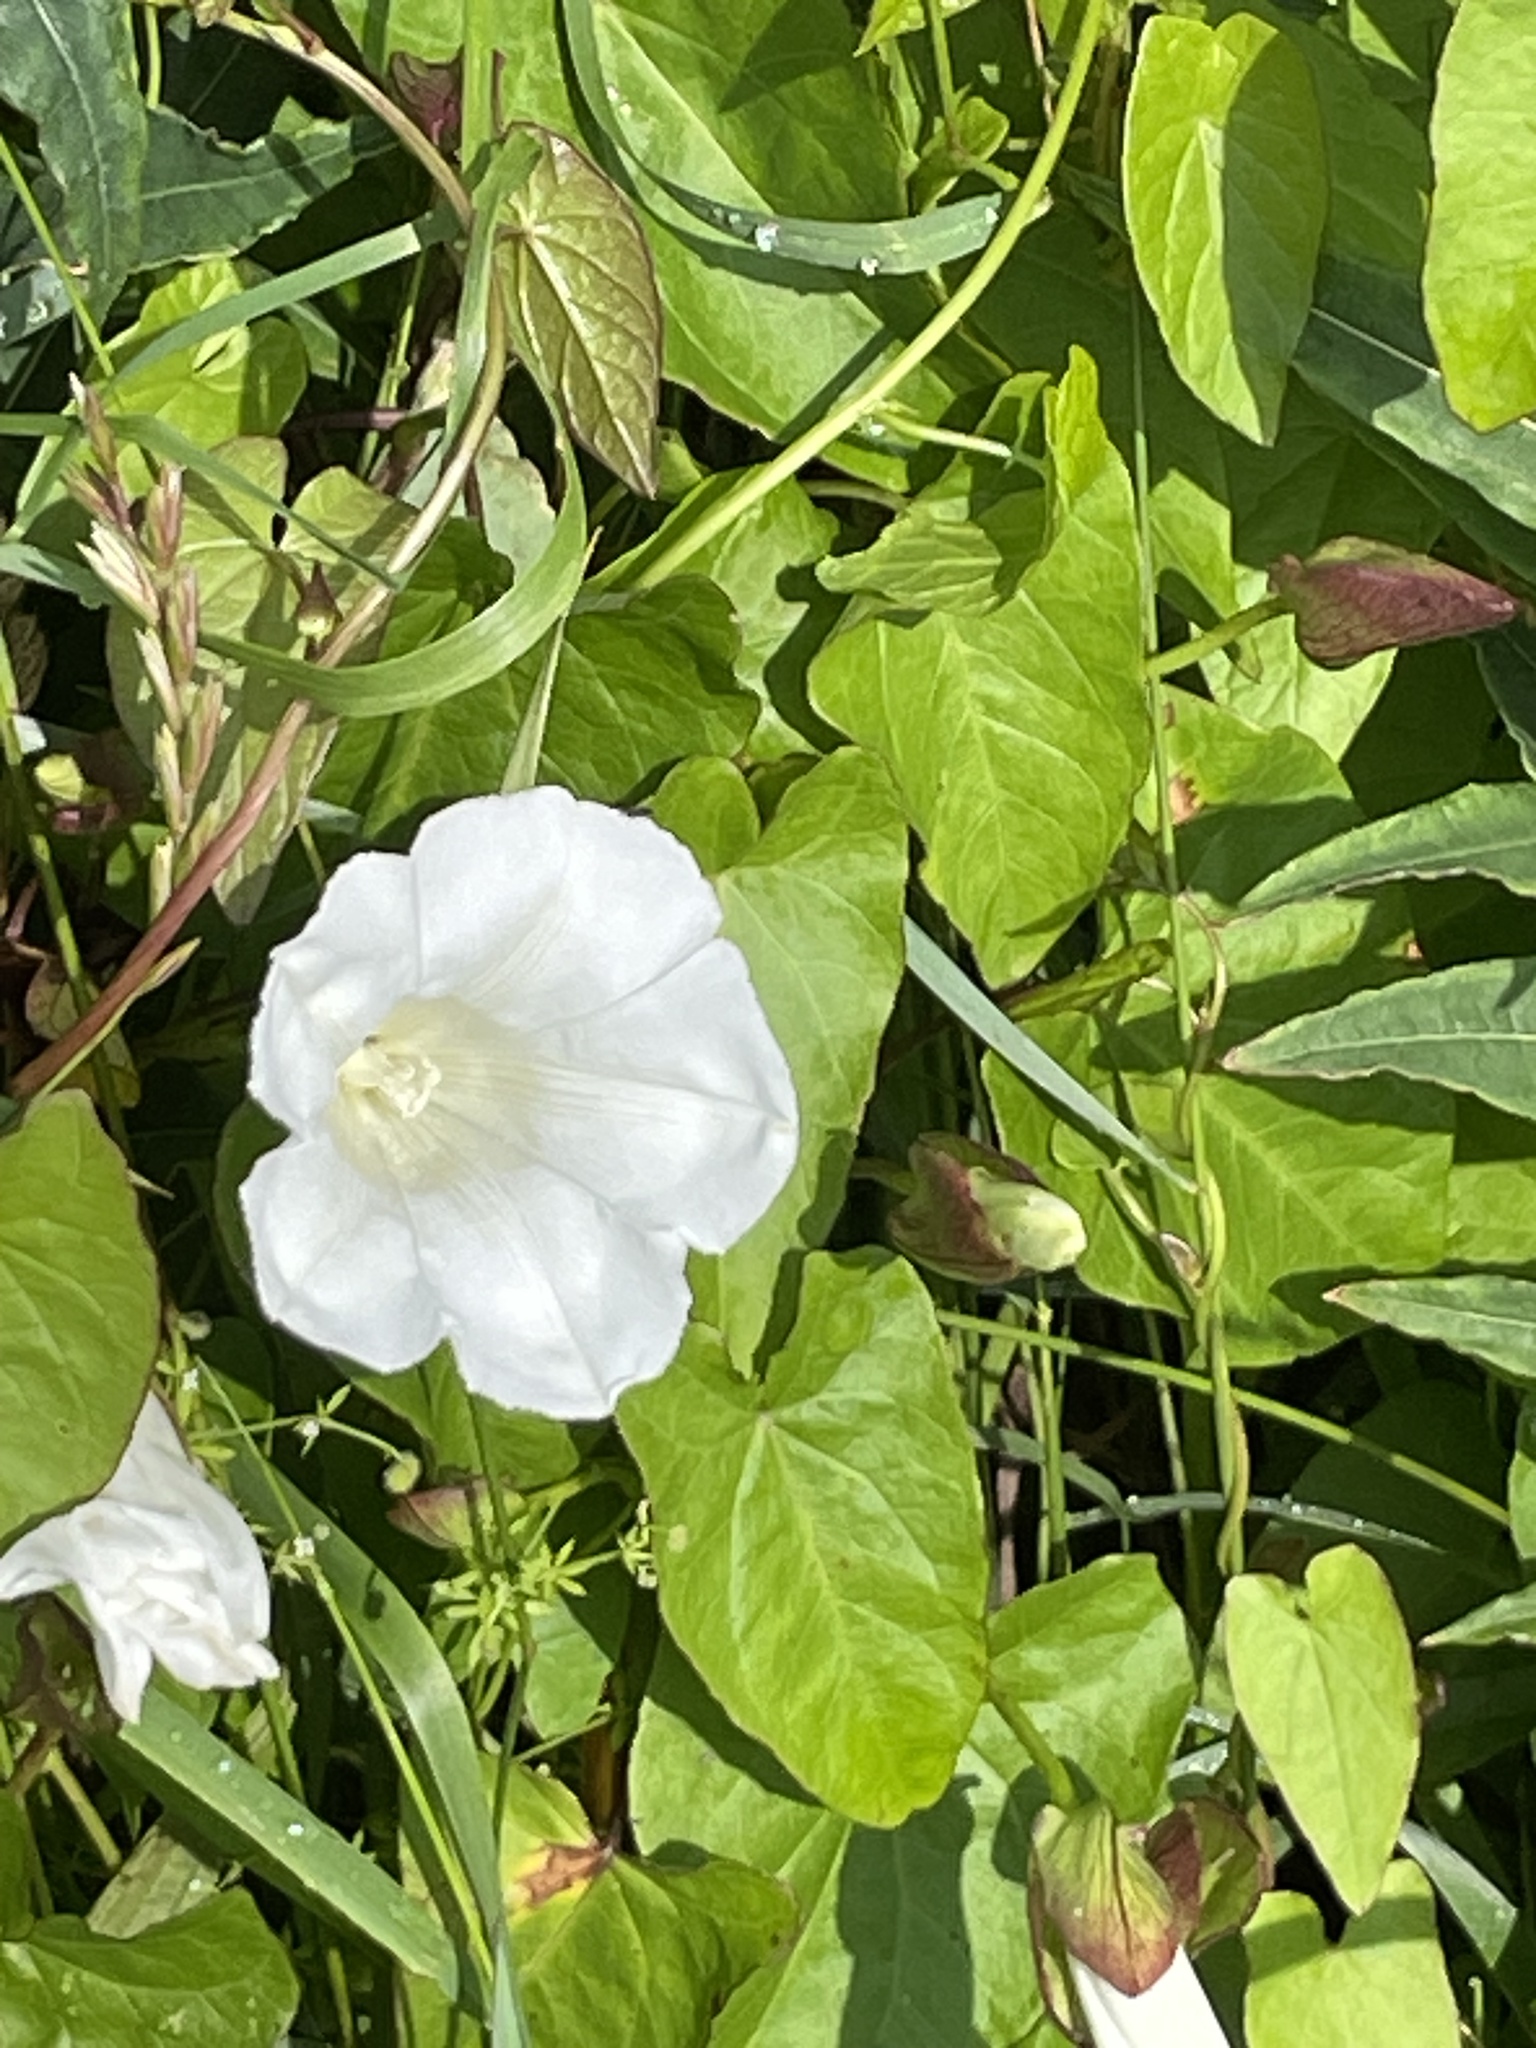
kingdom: Plantae
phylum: Tracheophyta
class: Magnoliopsida
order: Solanales
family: Convolvulaceae
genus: Calystegia
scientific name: Calystegia sepium
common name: Hedge bindweed
